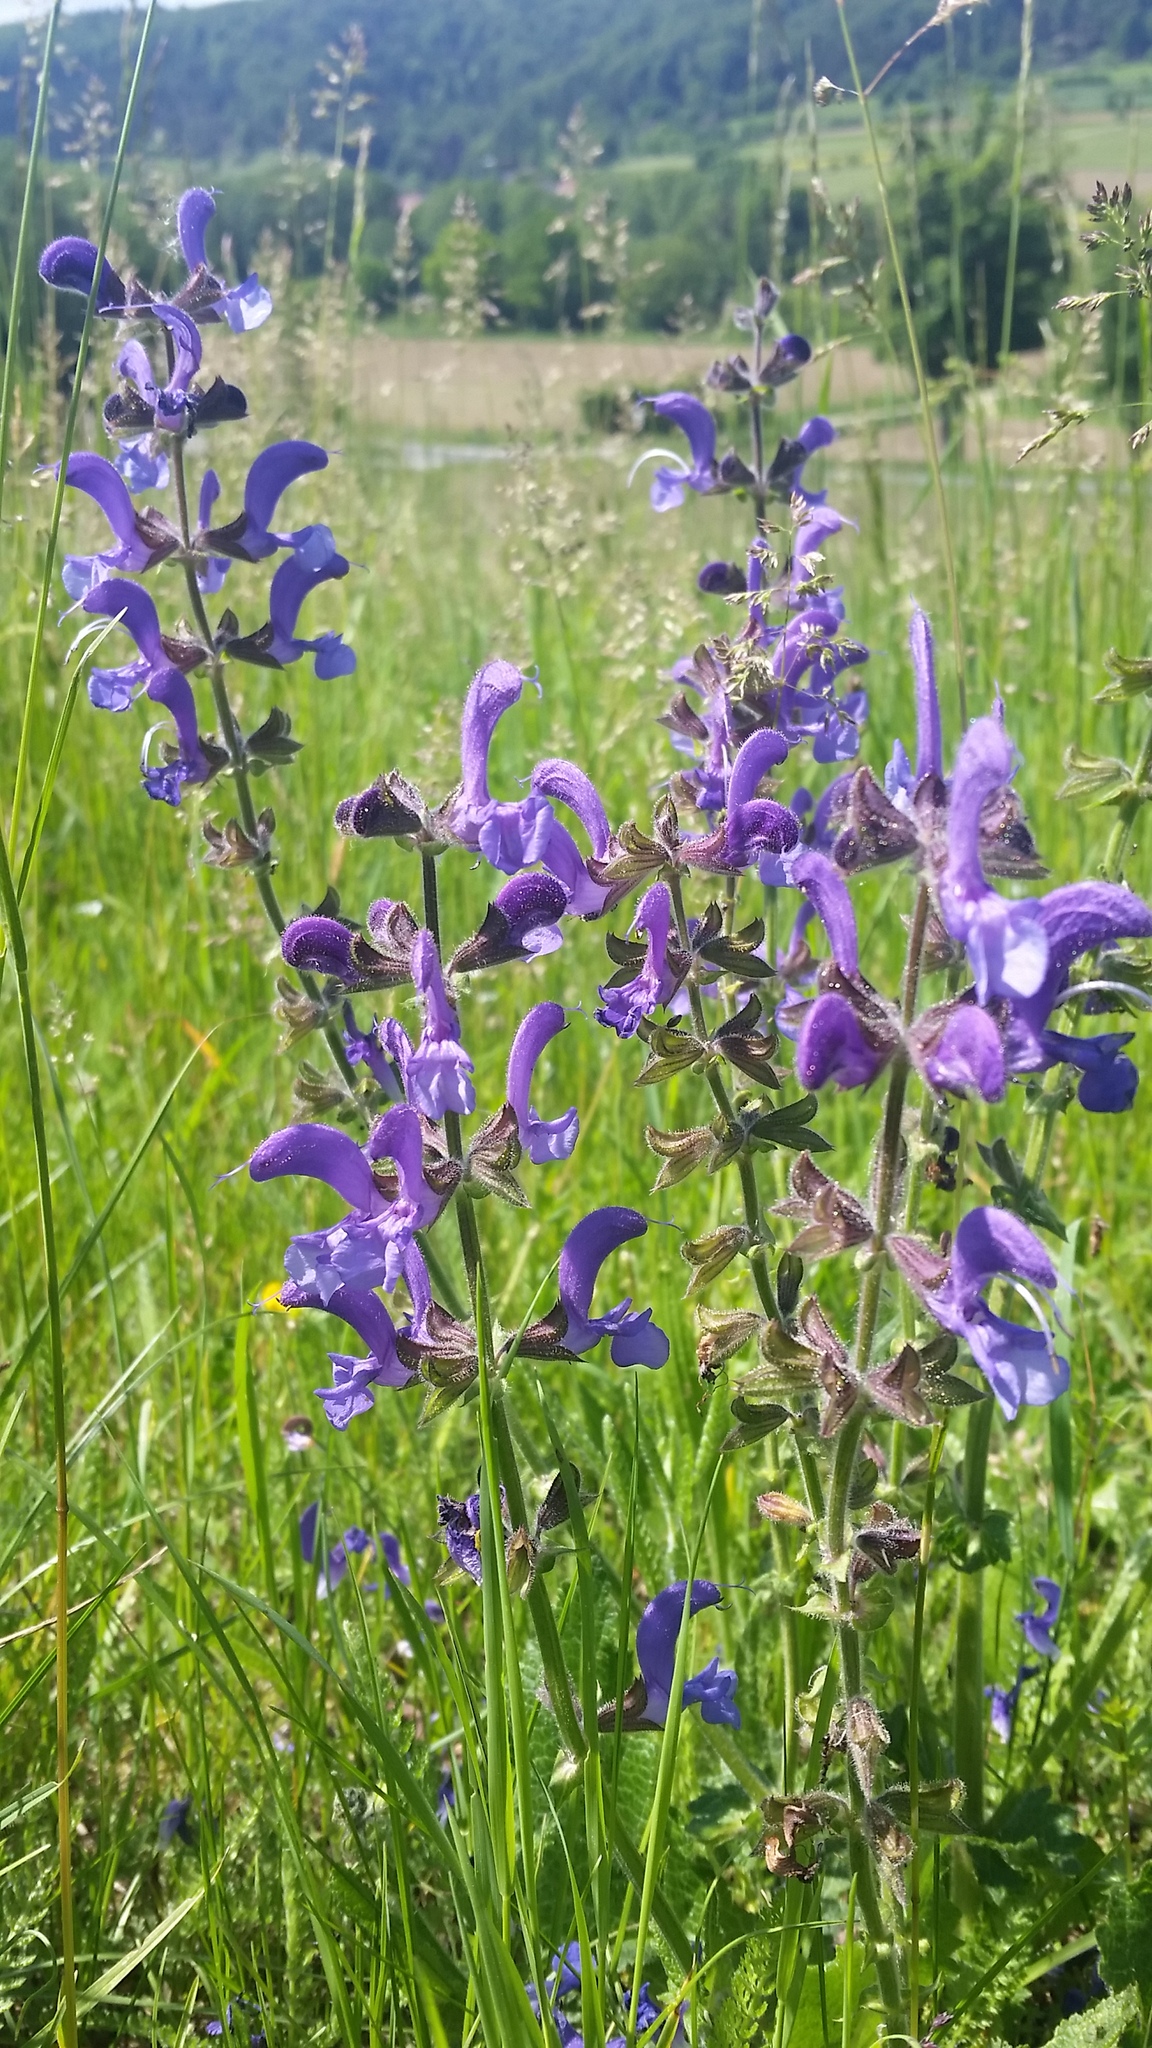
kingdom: Plantae
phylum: Tracheophyta
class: Magnoliopsida
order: Lamiales
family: Lamiaceae
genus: Salvia
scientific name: Salvia pratensis
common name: Meadow sage
